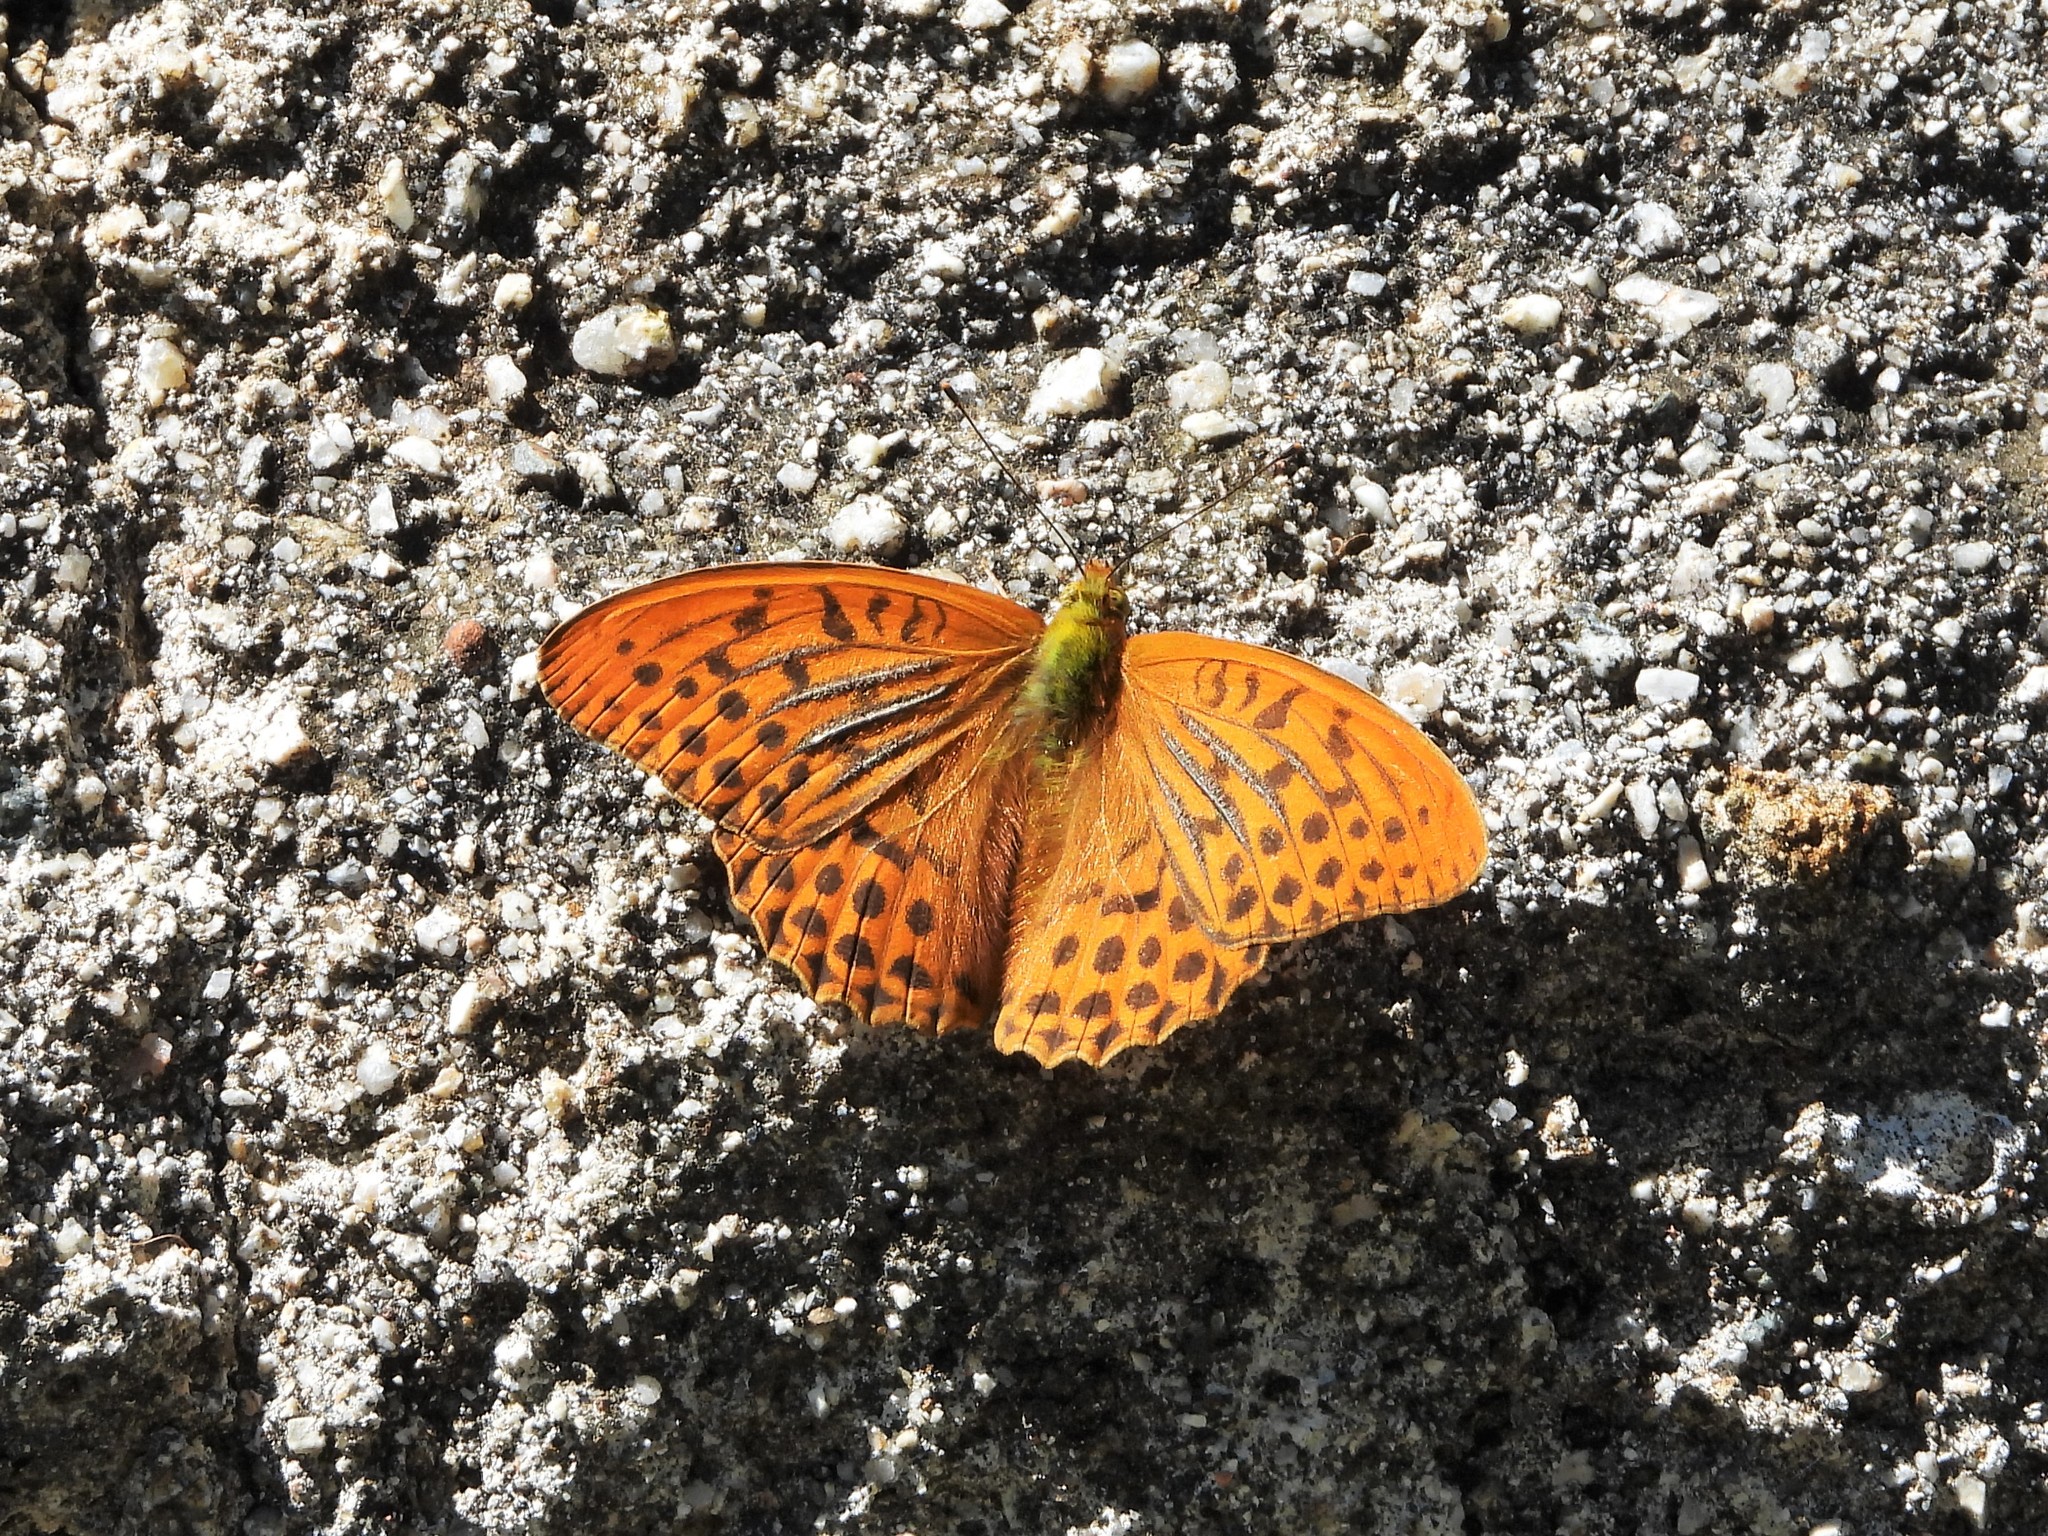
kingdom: Animalia
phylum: Arthropoda
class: Insecta
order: Lepidoptera
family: Nymphalidae
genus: Argynnis
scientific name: Argynnis paphia
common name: Silver-washed fritillary
